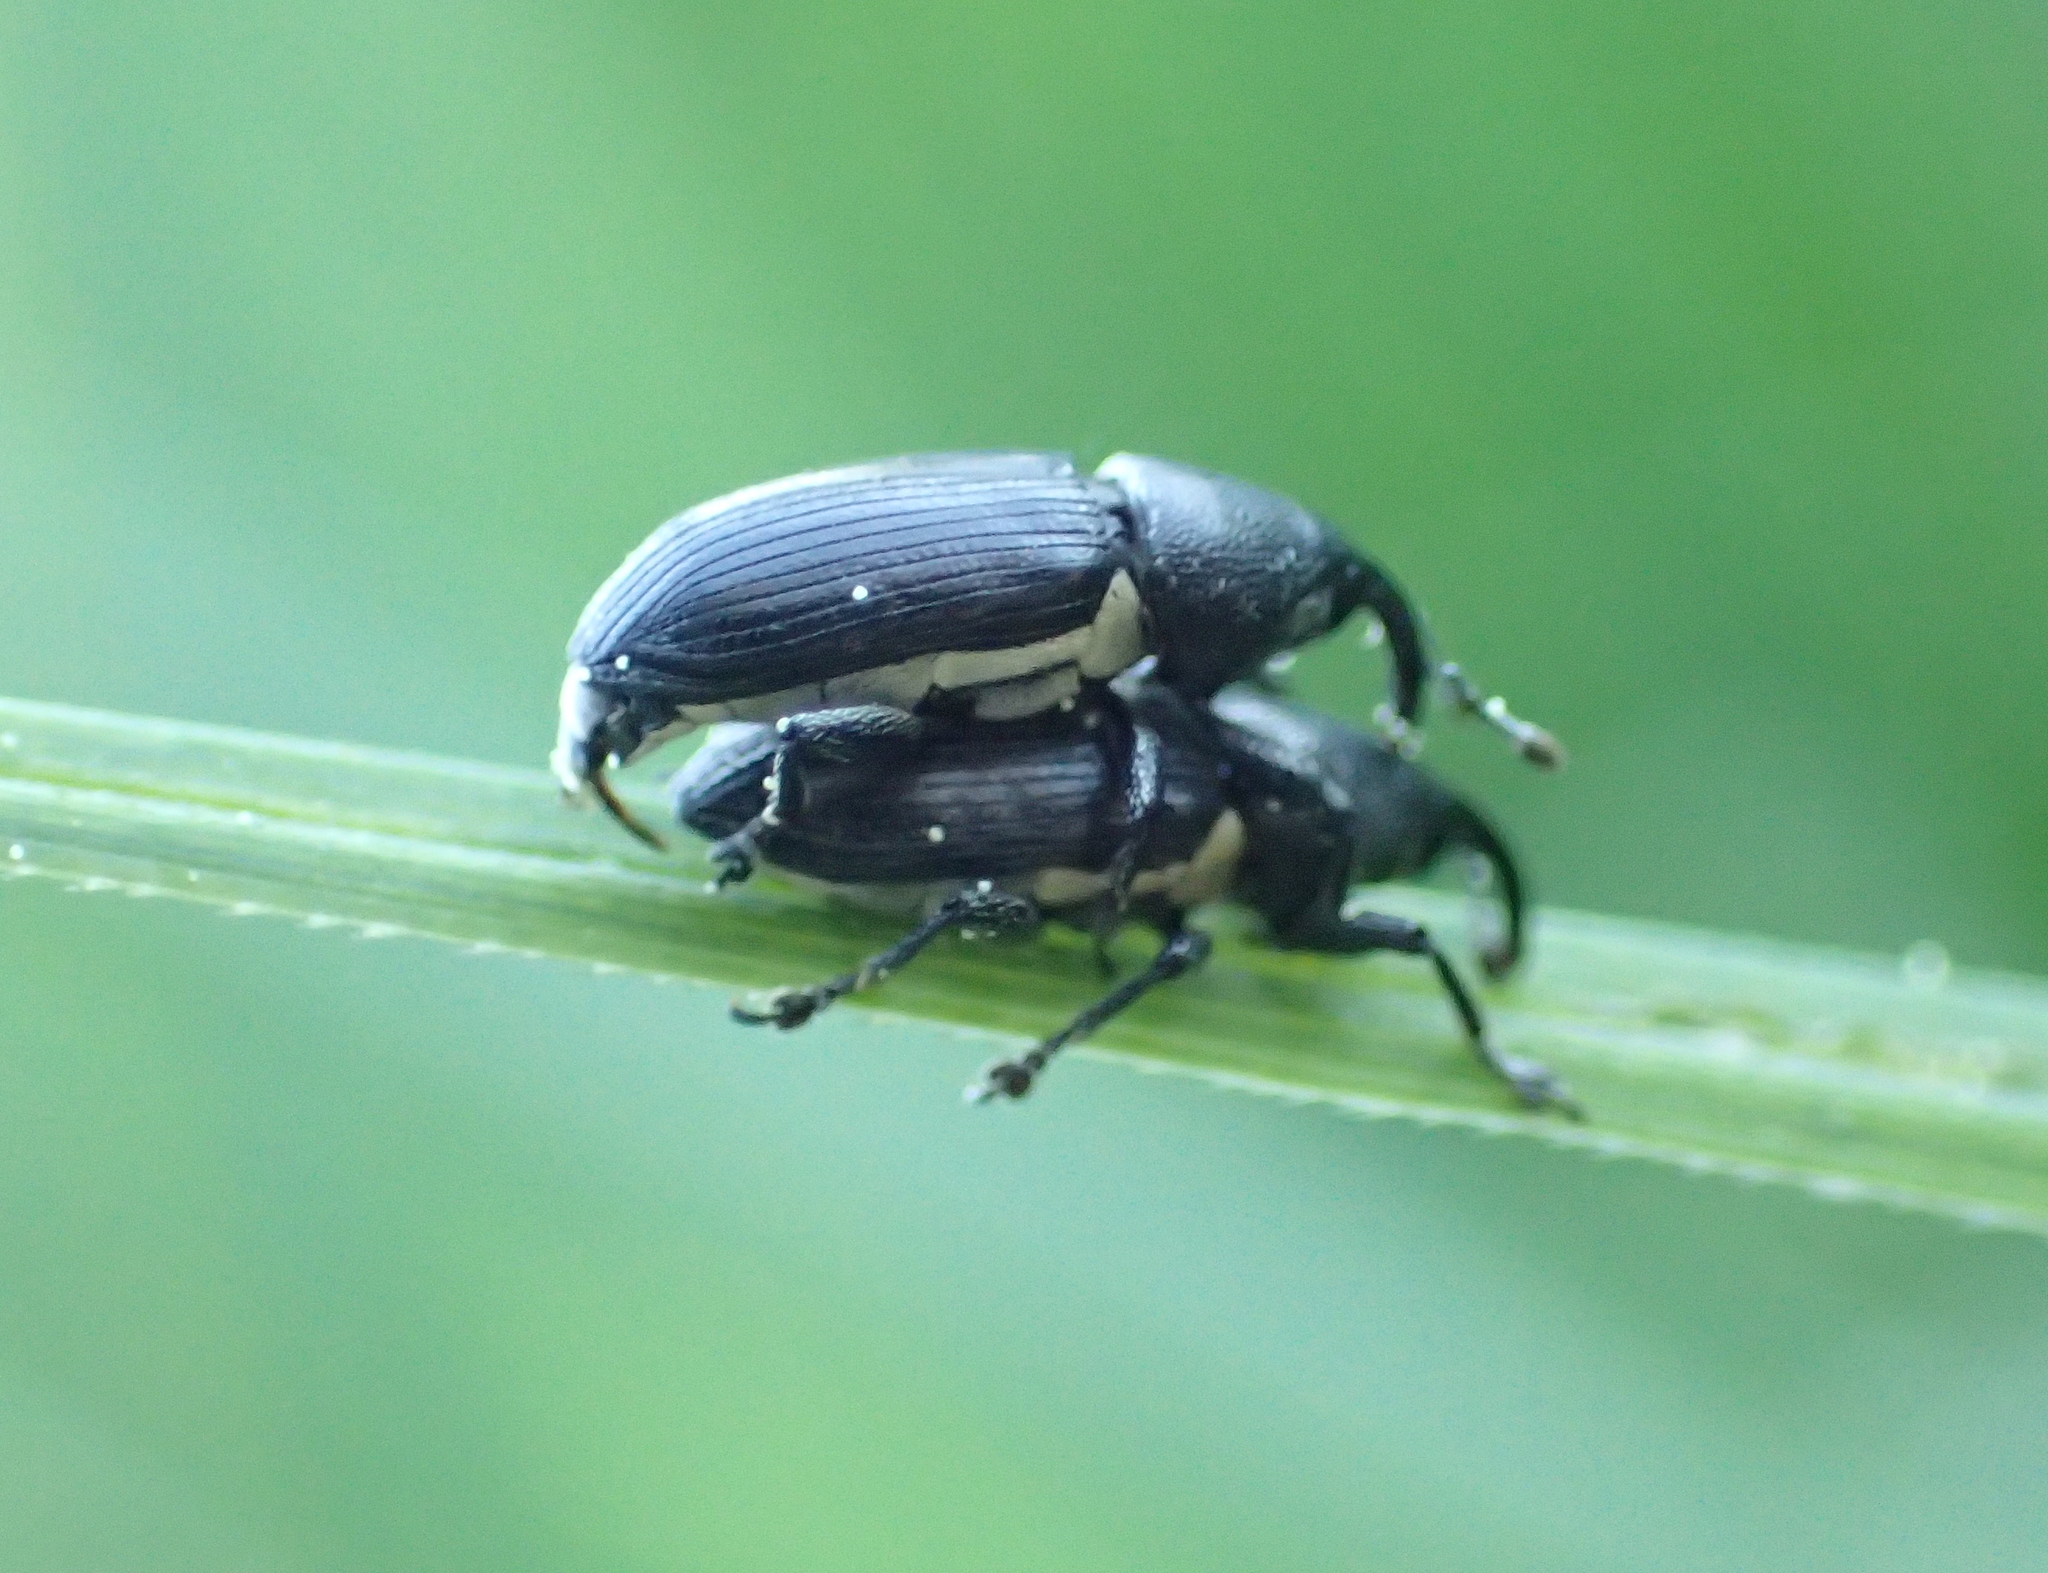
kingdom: Animalia
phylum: Arthropoda
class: Insecta
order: Coleoptera
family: Curculionidae
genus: Limnobaris
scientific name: Limnobaris t-album
